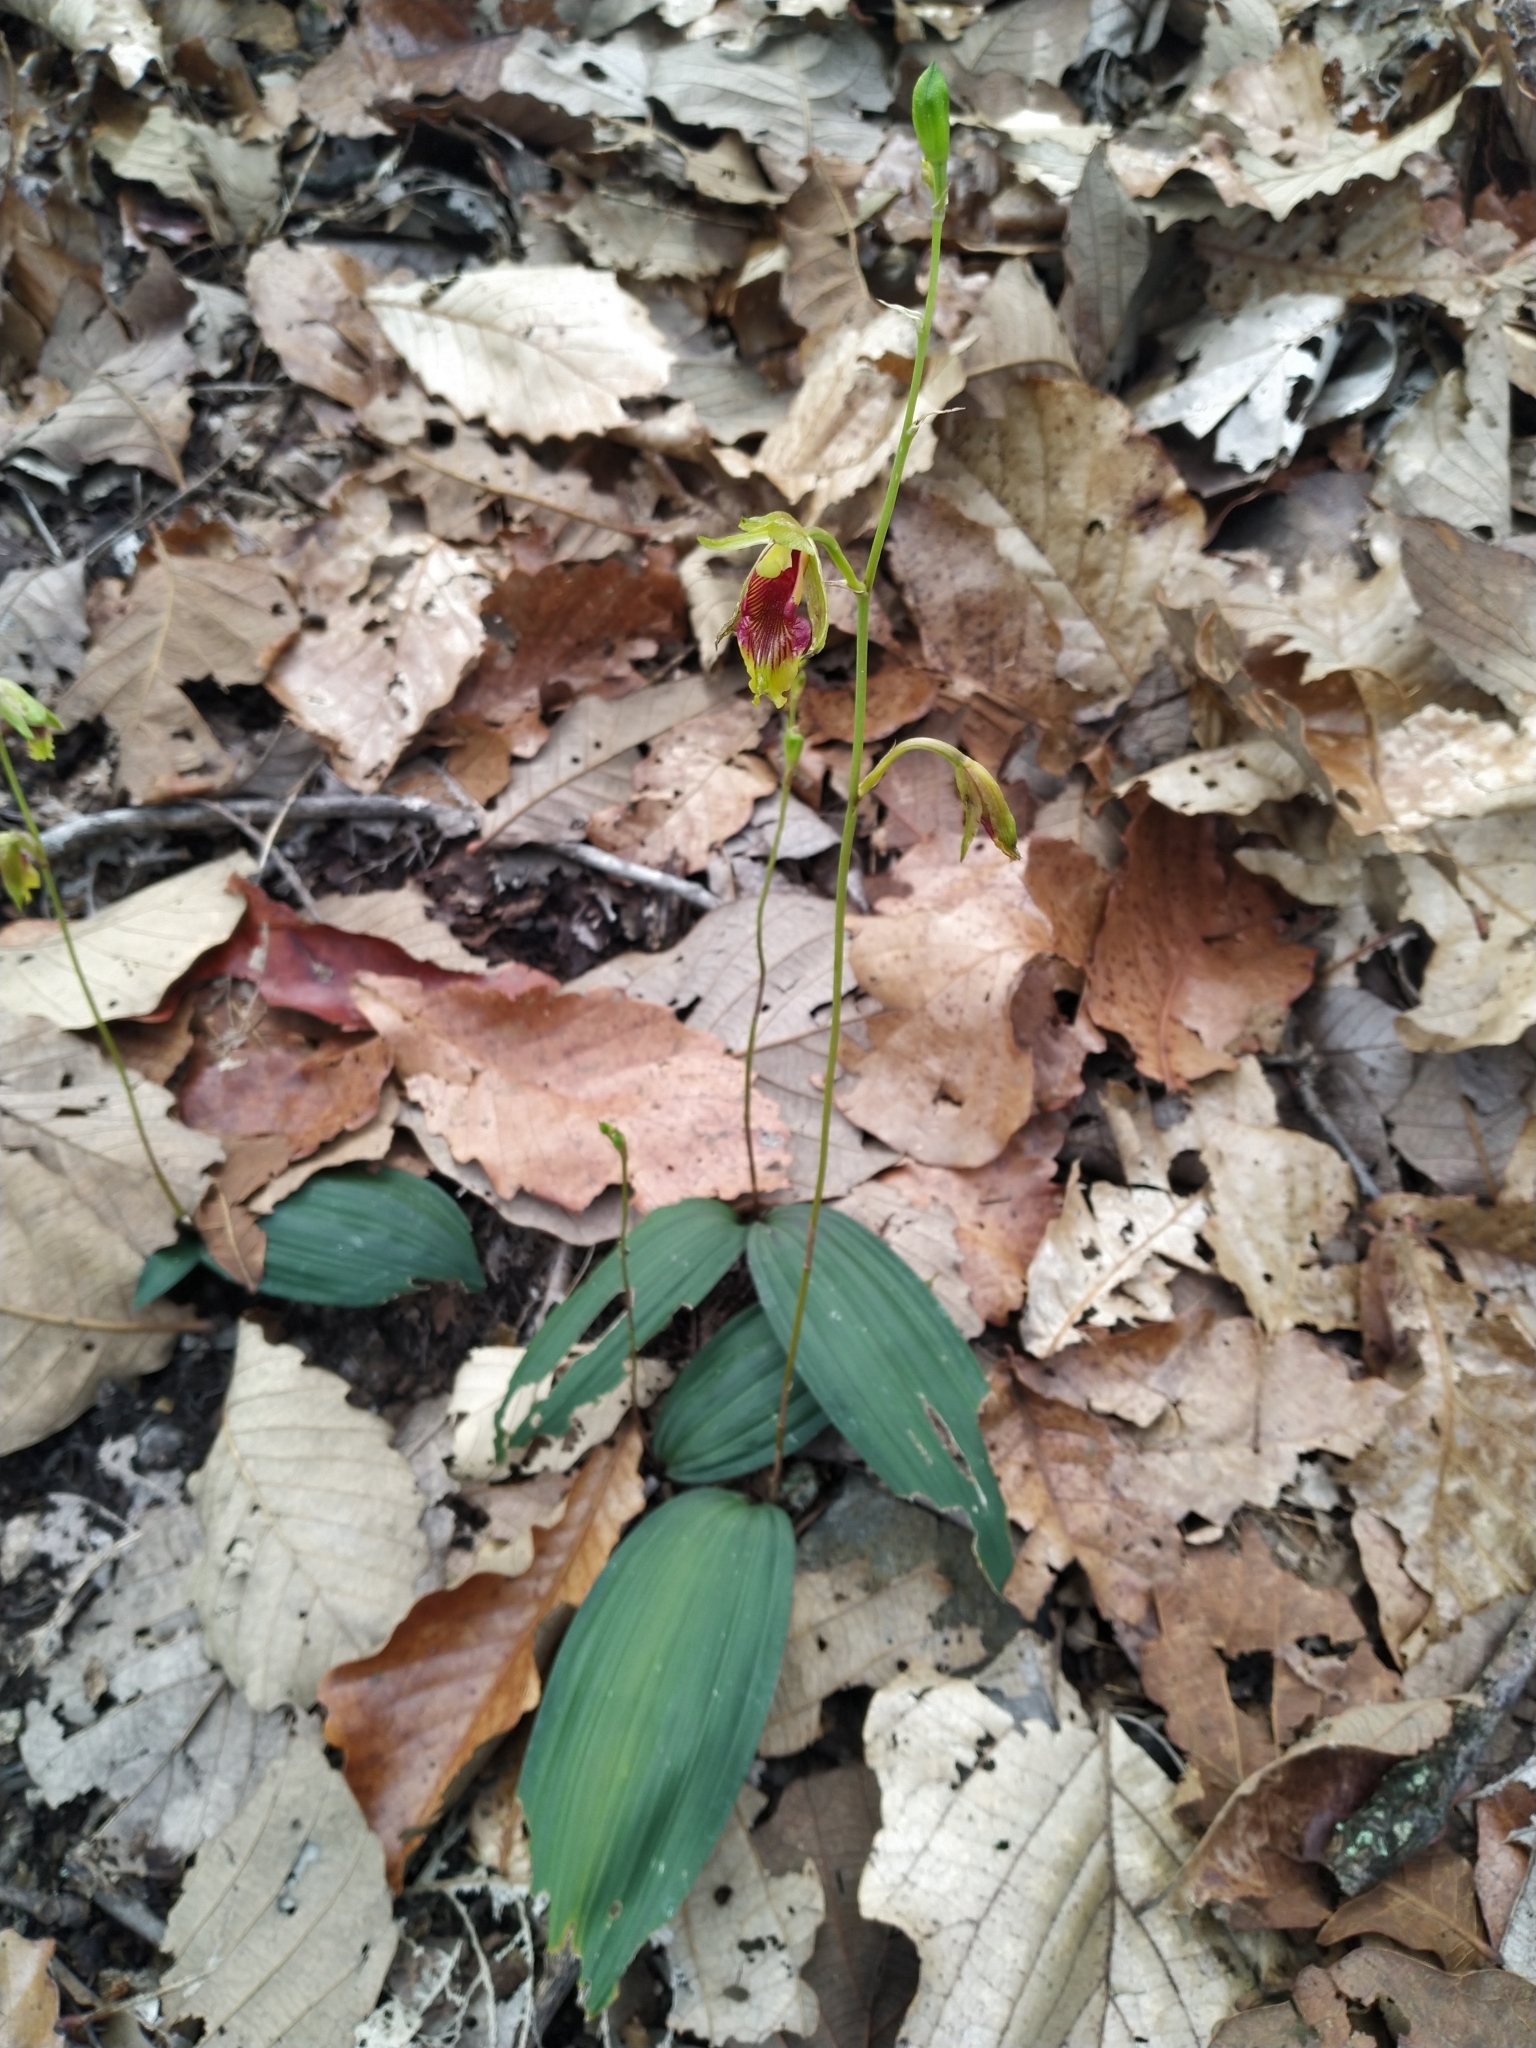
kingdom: Plantae
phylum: Tracheophyta
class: Liliopsida
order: Asparagales
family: Orchidaceae
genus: Bletia
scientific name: Bletia roezlii
